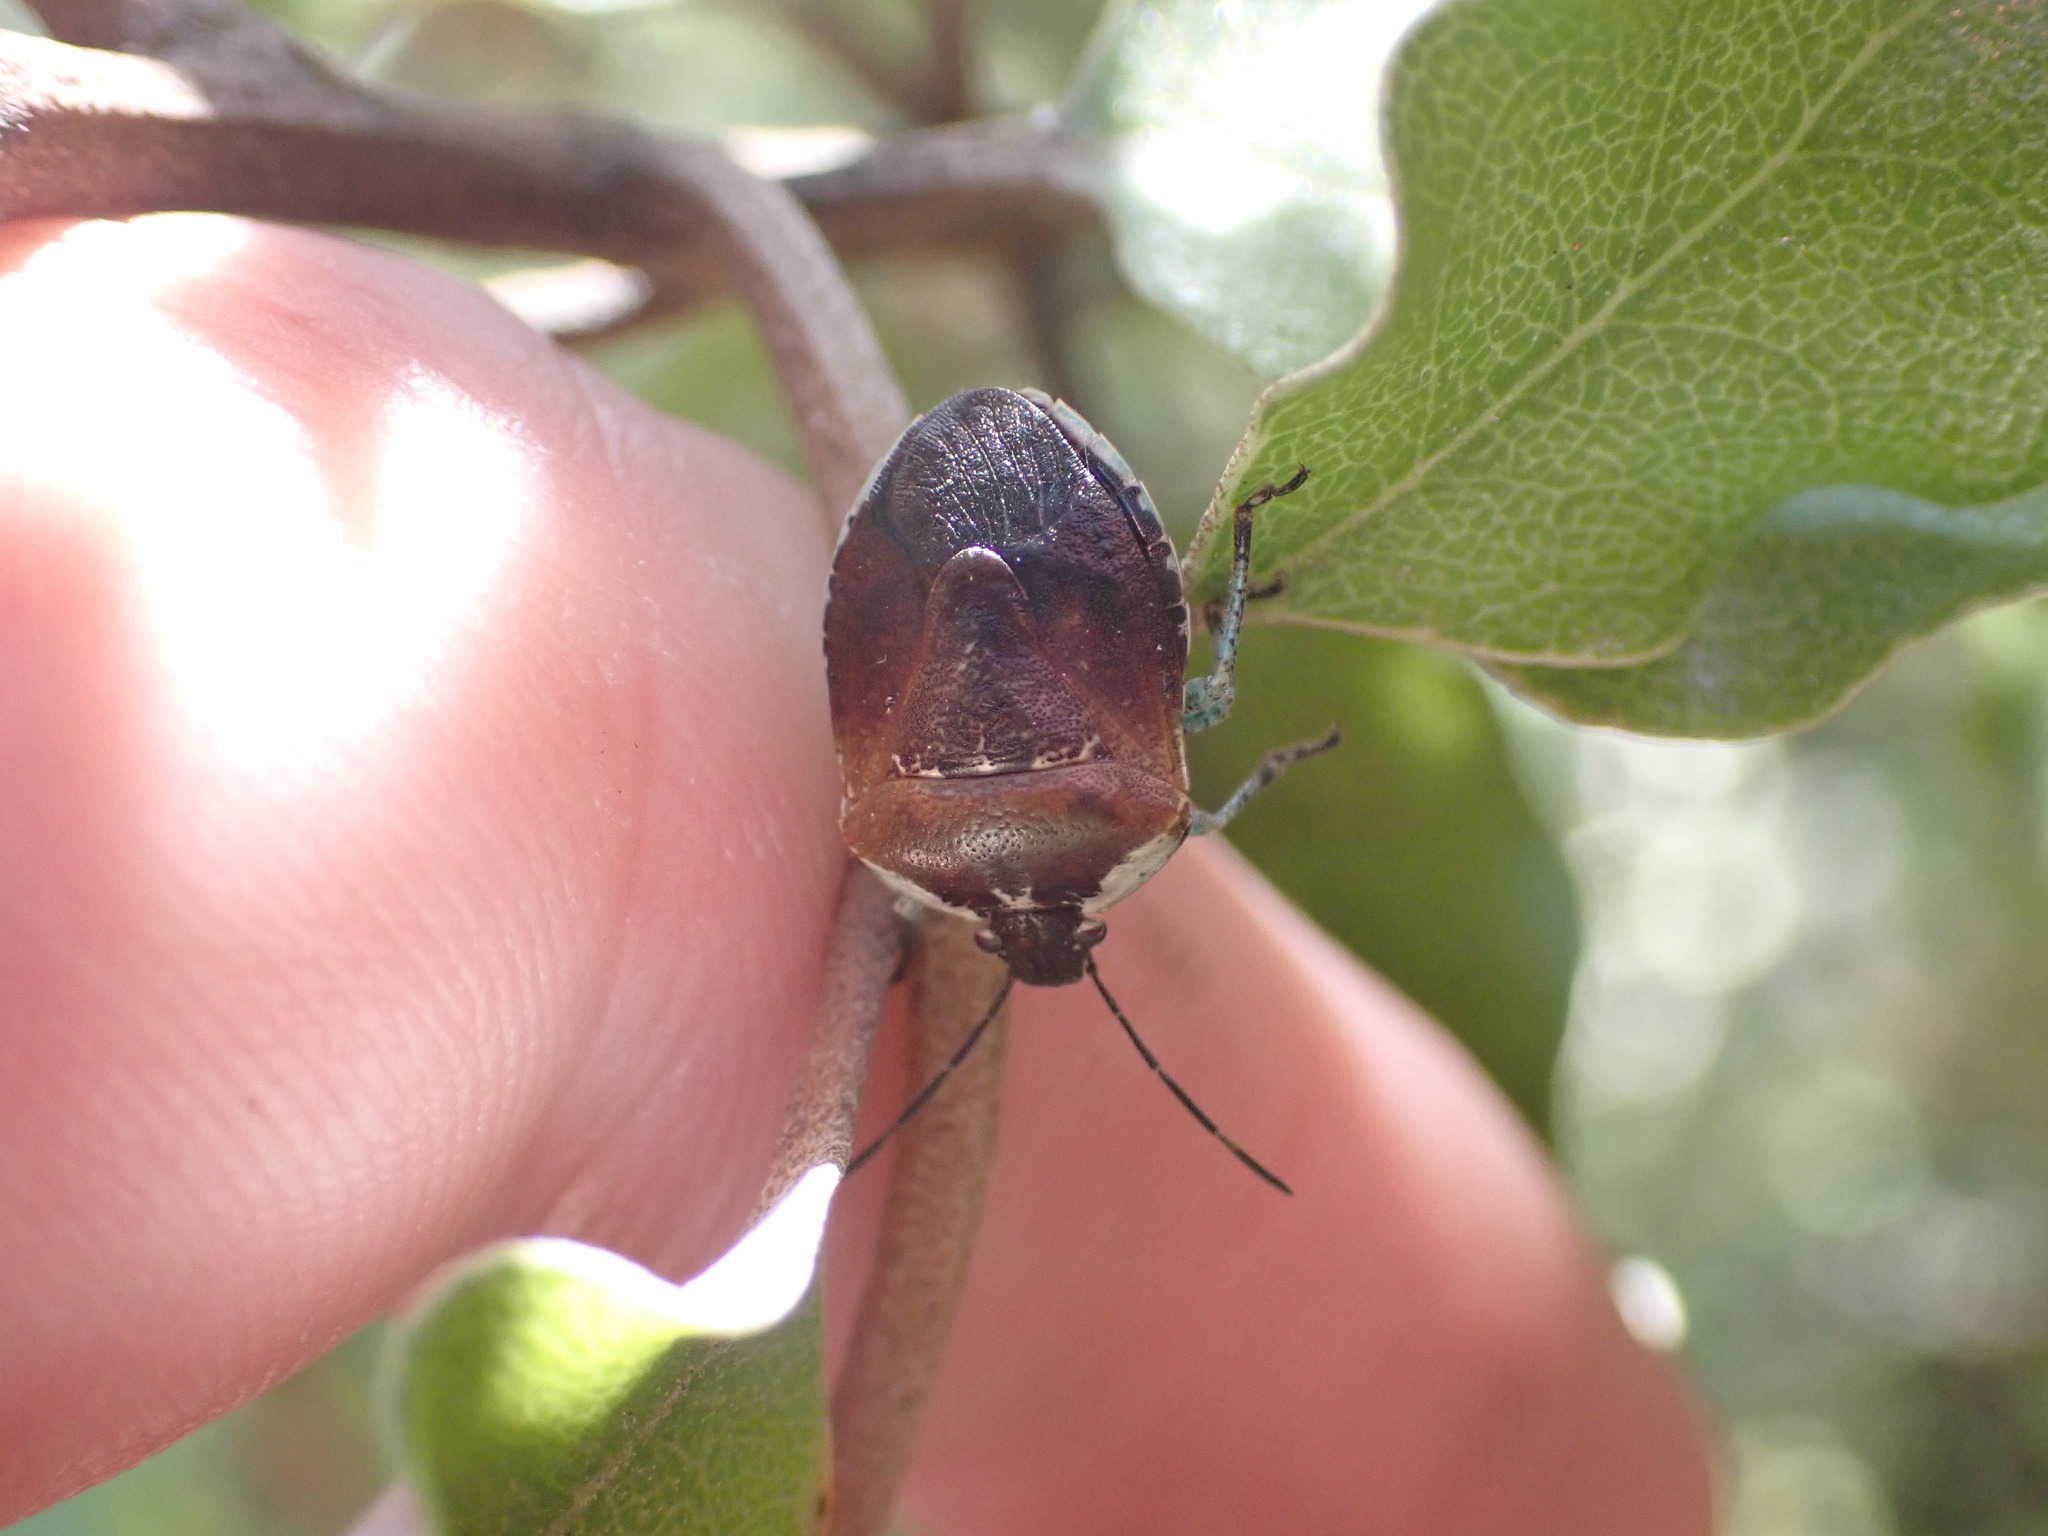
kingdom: Animalia
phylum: Arthropoda
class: Insecta
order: Hemiptera
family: Pentatomidae
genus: Monteithiella
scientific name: Monteithiella
